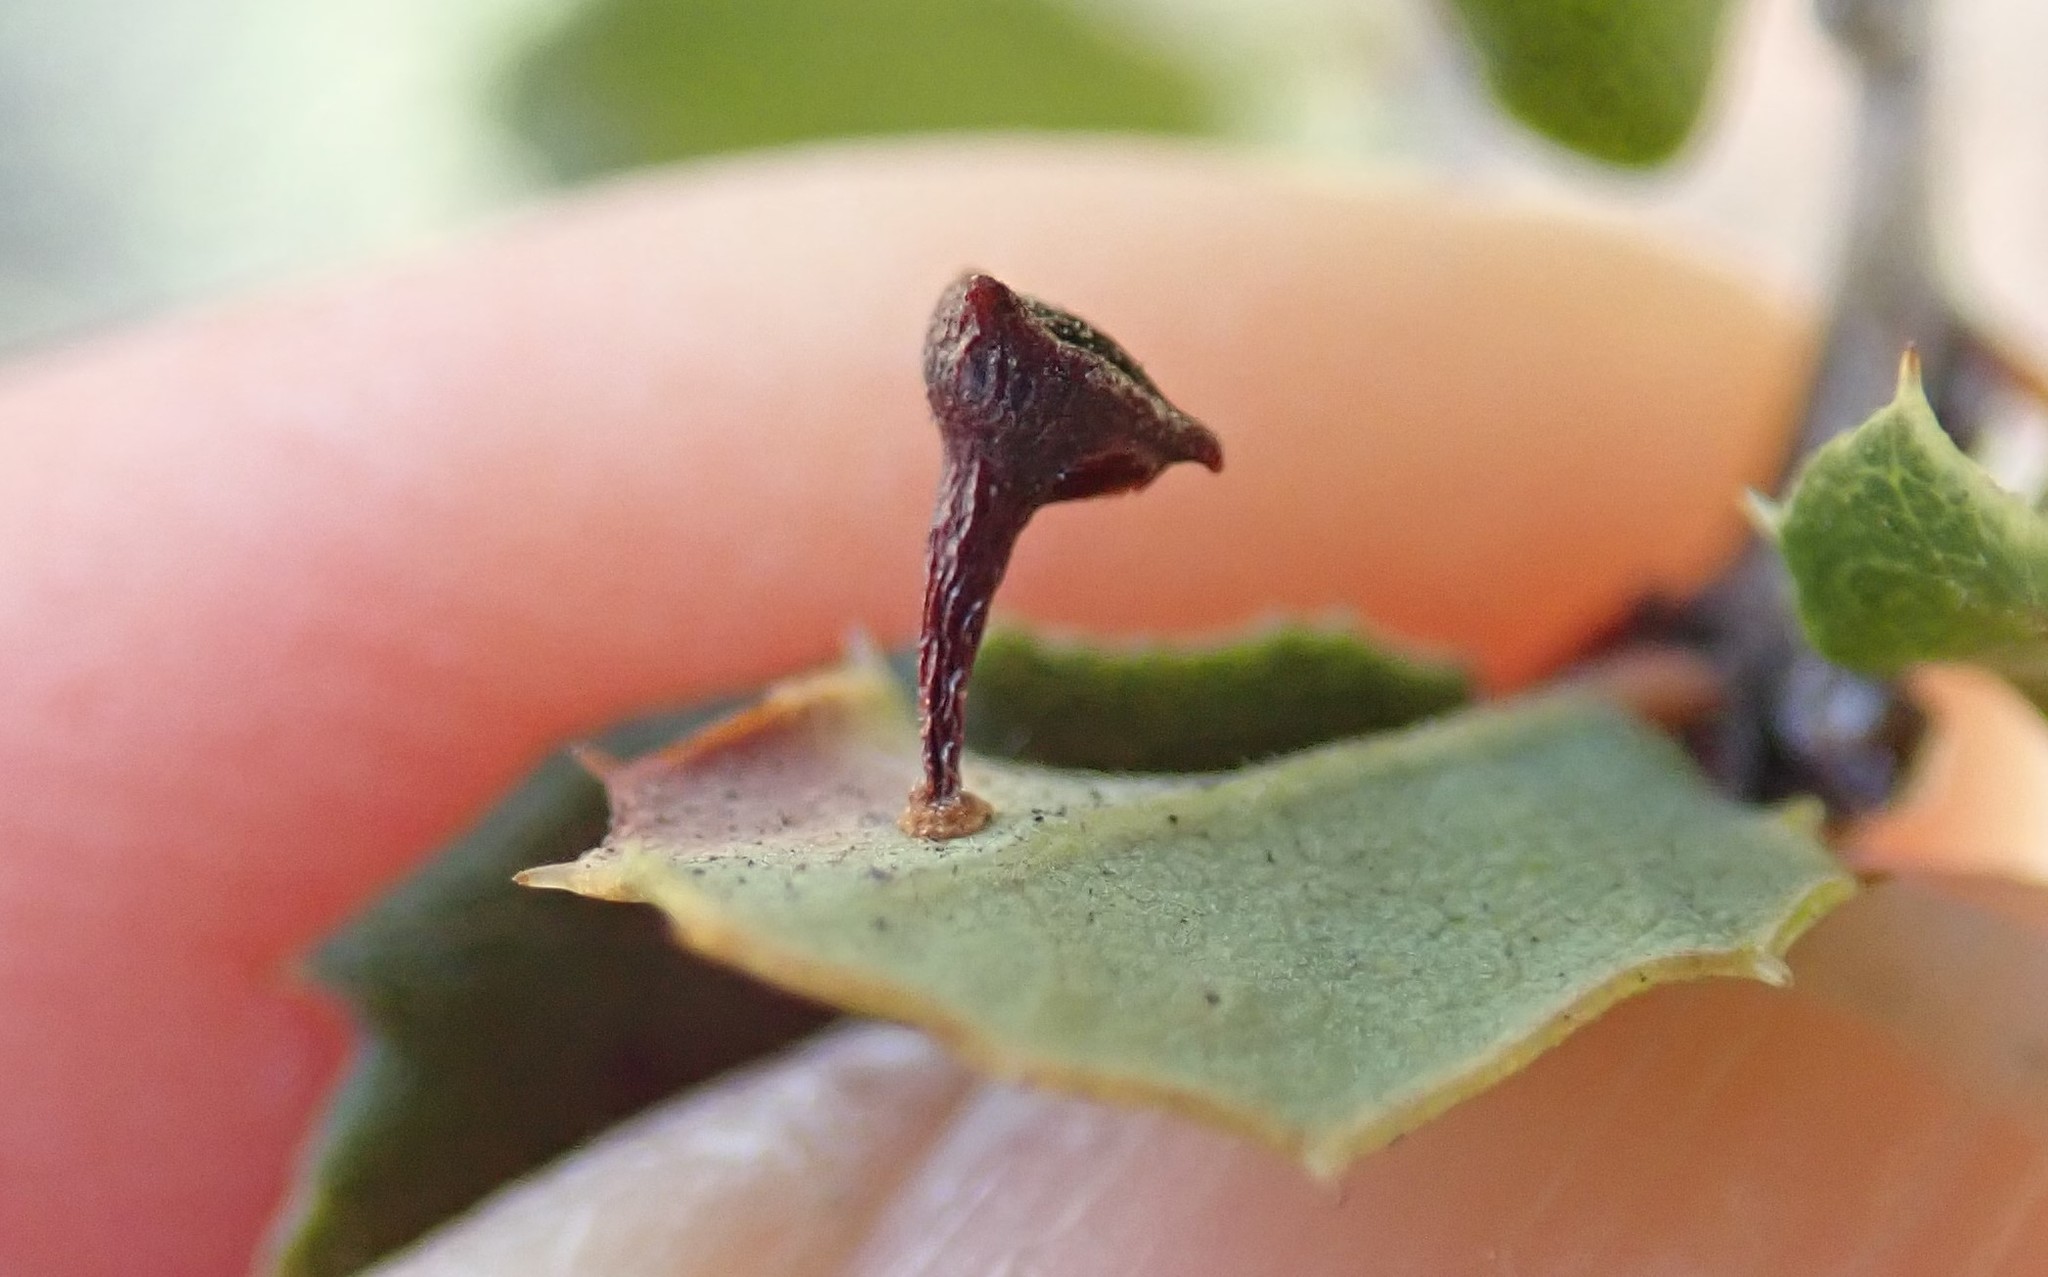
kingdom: Animalia
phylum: Arthropoda
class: Insecta
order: Hymenoptera
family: Cynipidae
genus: Andricus
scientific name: Andricus
